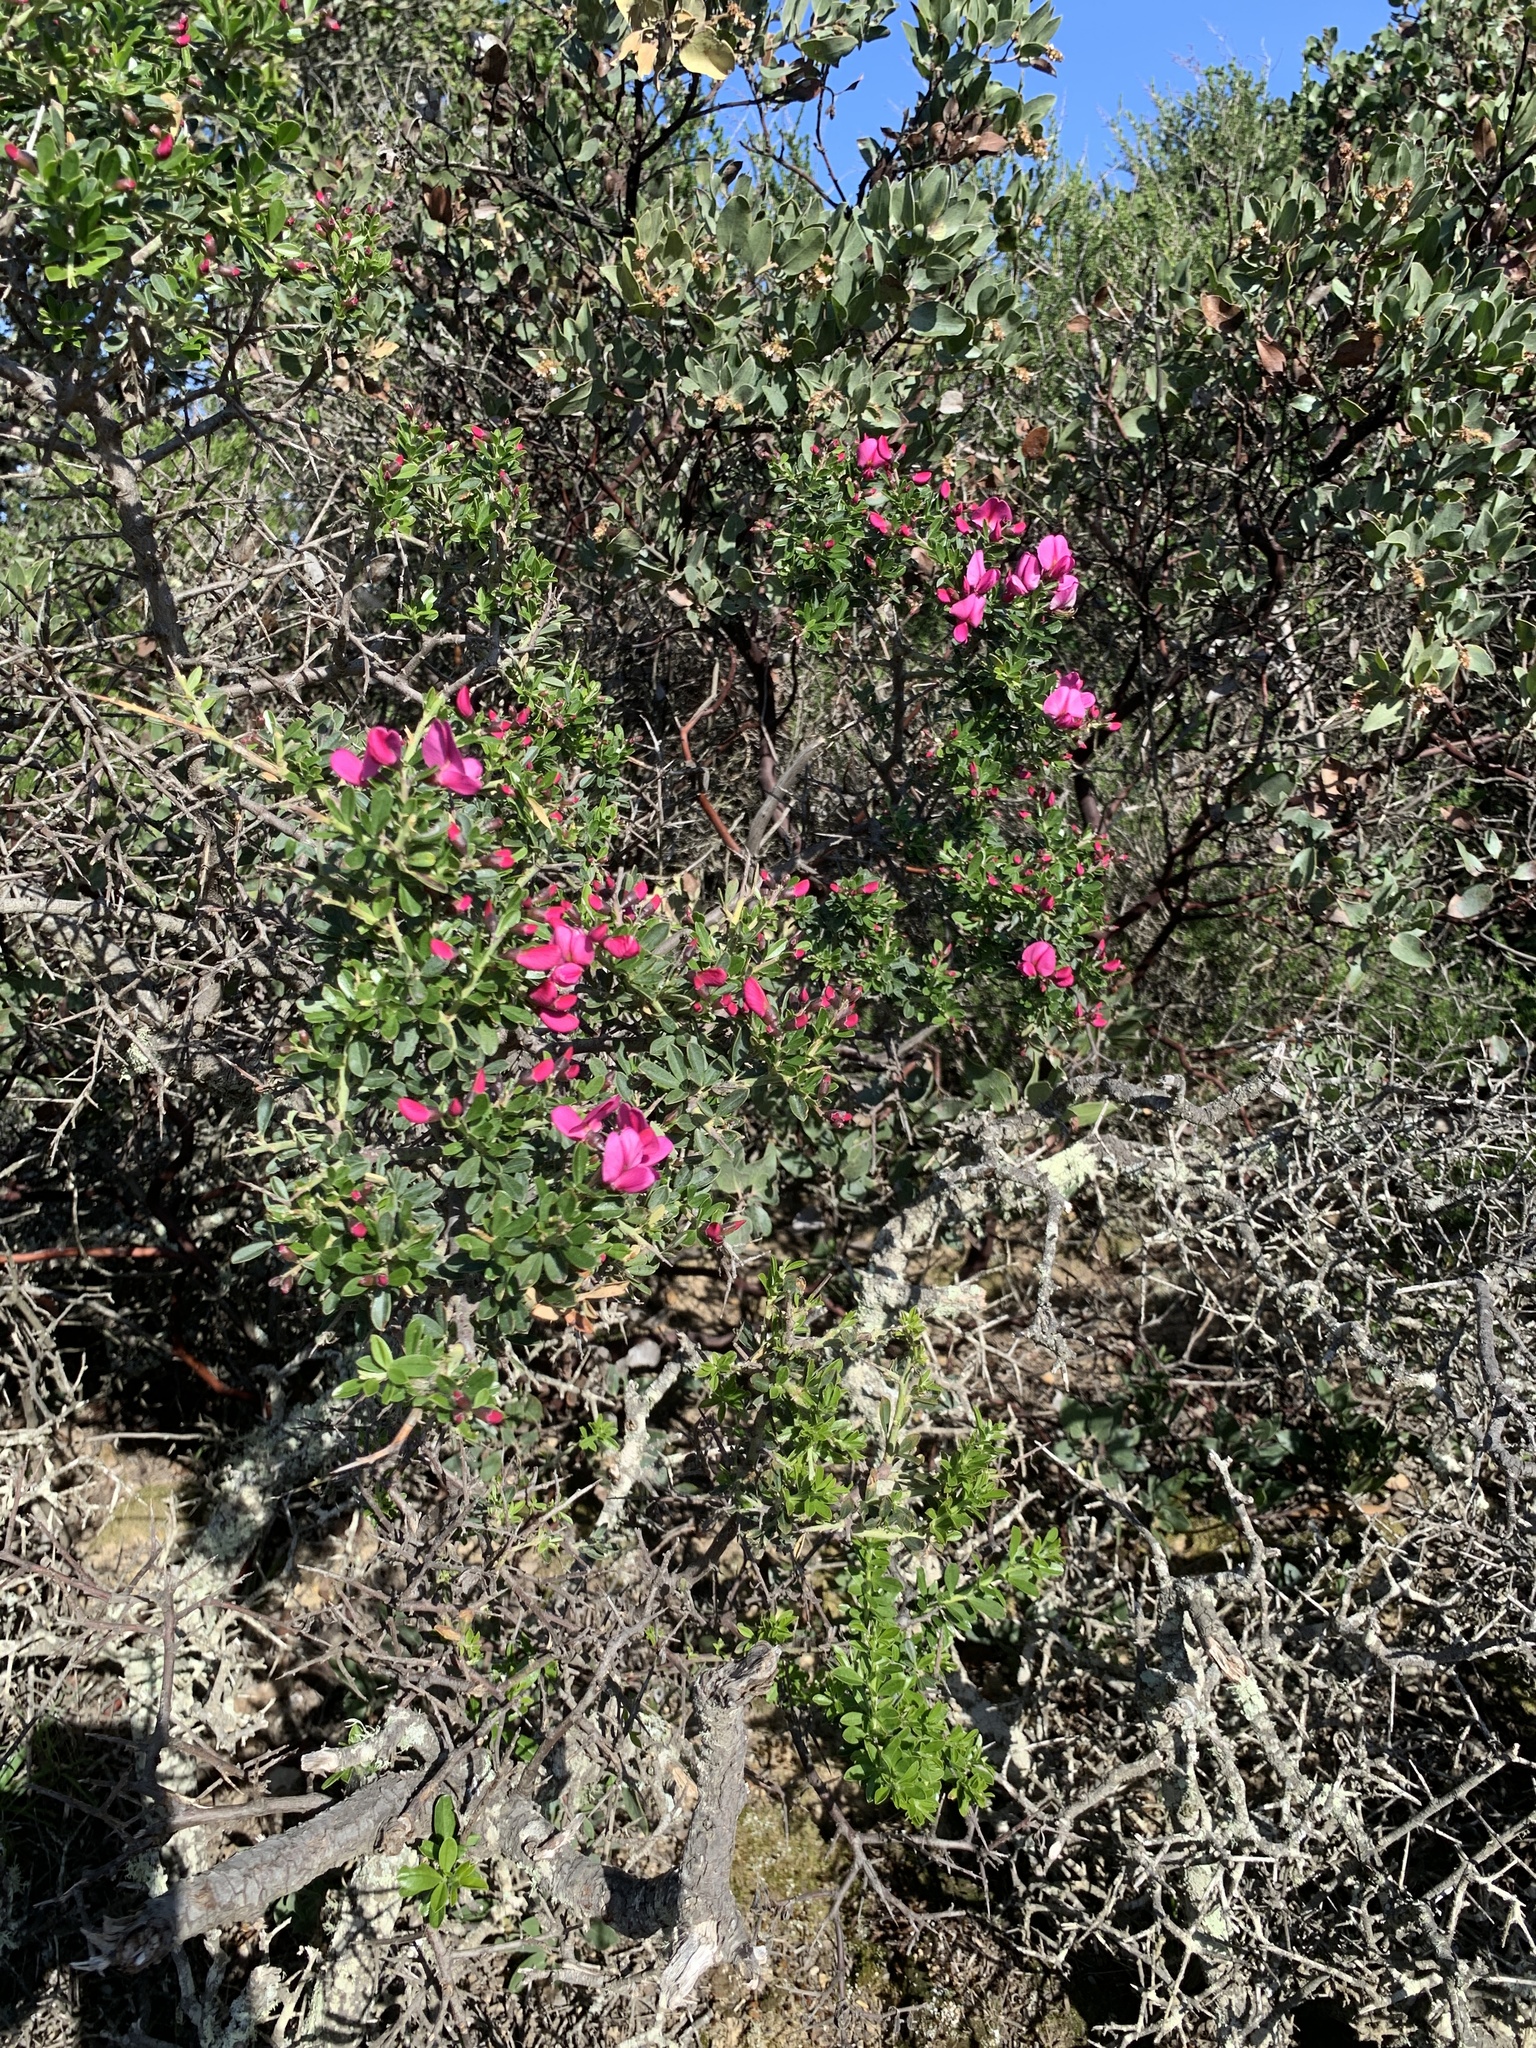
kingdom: Plantae
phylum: Tracheophyta
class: Magnoliopsida
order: Fabales
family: Fabaceae
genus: Pickeringia
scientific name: Pickeringia montana
